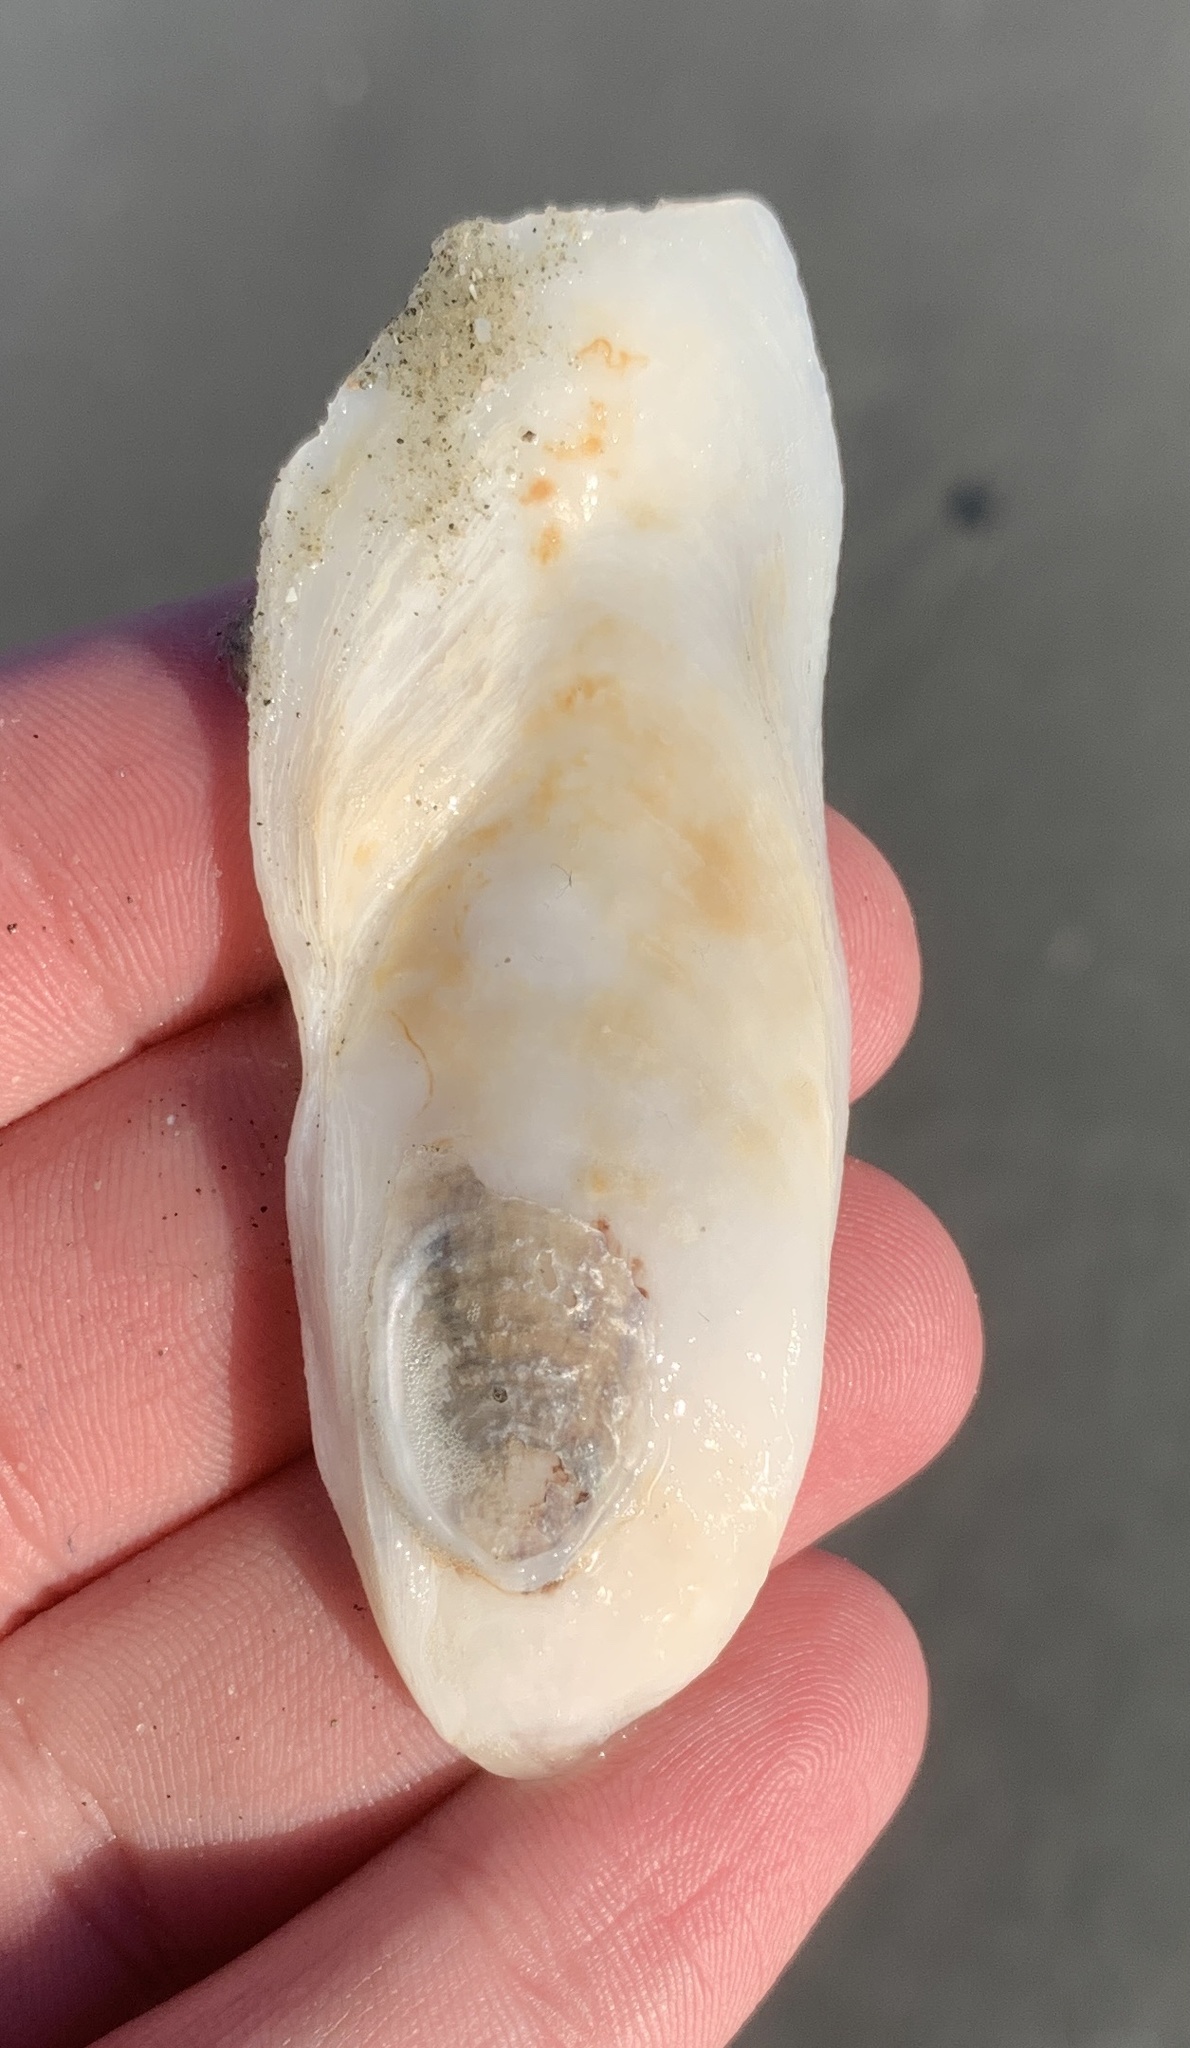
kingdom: Animalia
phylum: Mollusca
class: Bivalvia
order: Ostreida
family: Ostreidae
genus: Crassostrea
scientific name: Crassostrea virginica
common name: American oyster
